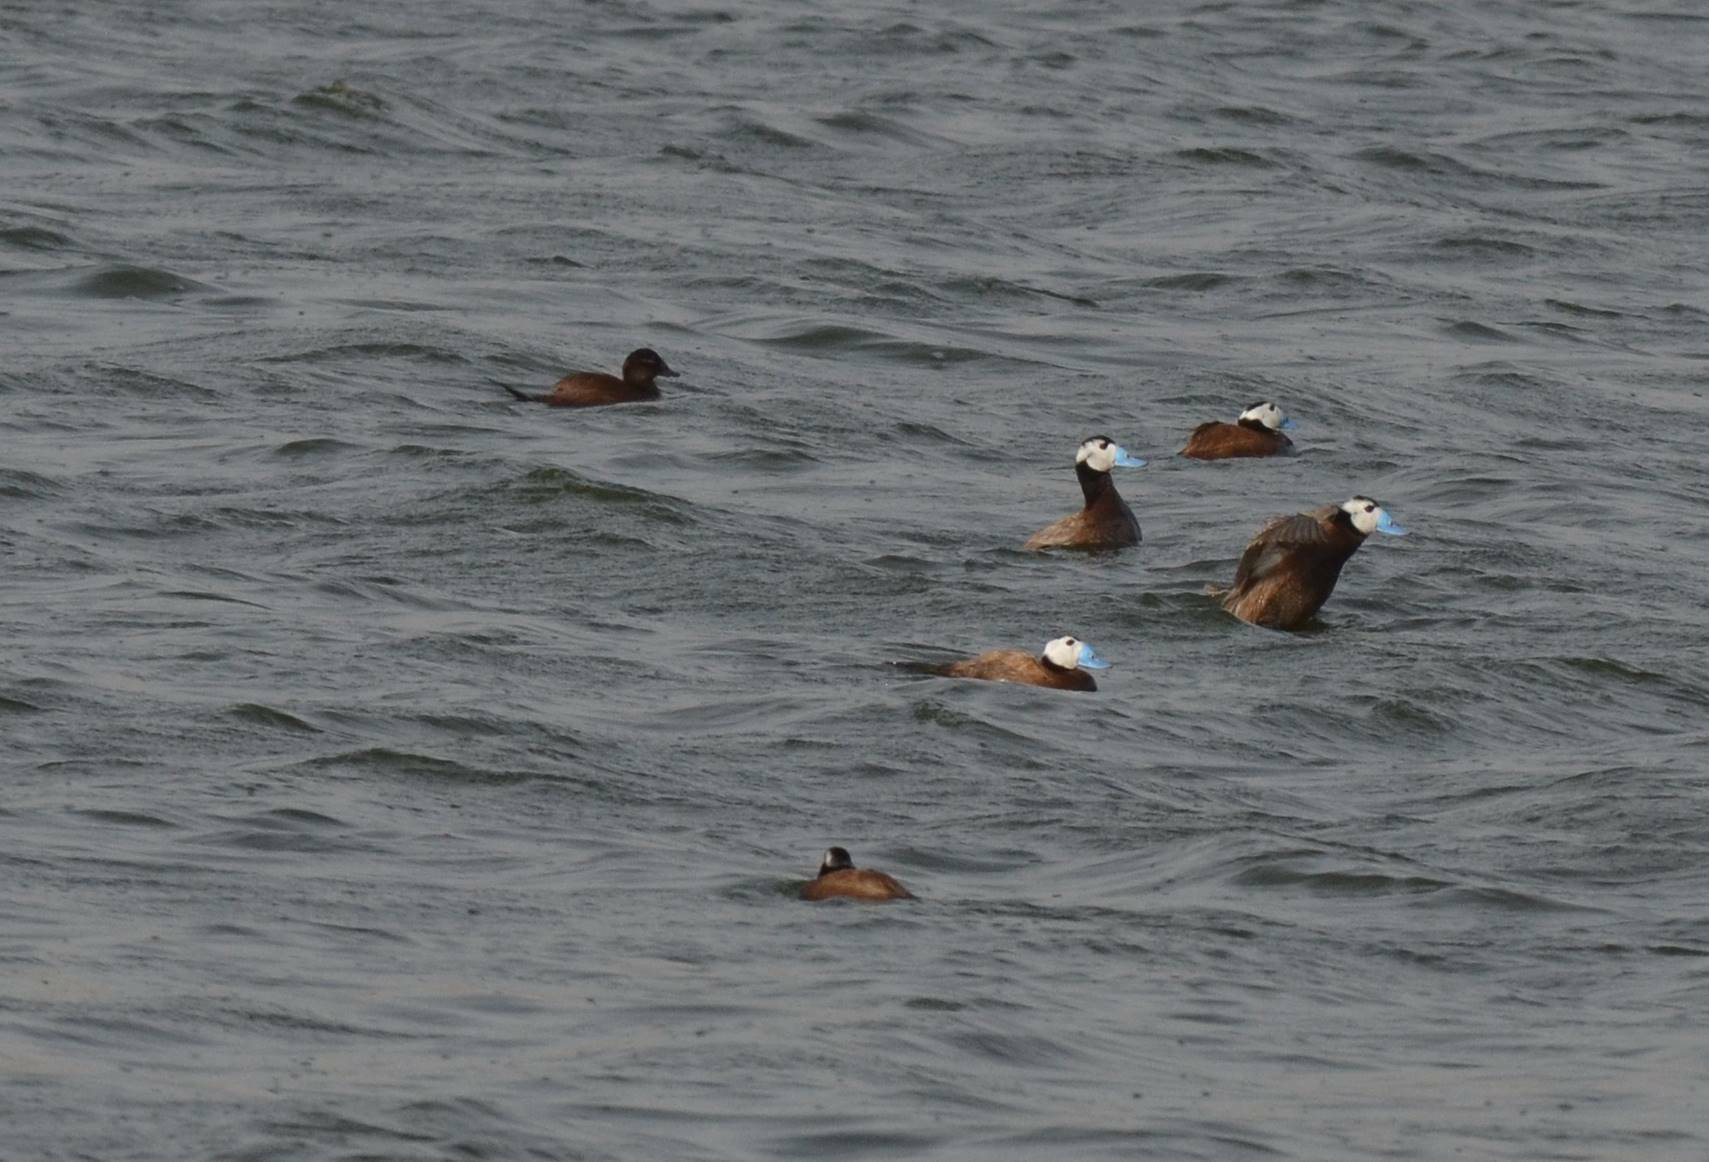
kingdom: Animalia
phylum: Chordata
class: Aves
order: Anseriformes
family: Anatidae
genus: Oxyura
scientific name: Oxyura leucocephala
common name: White-headed duck
